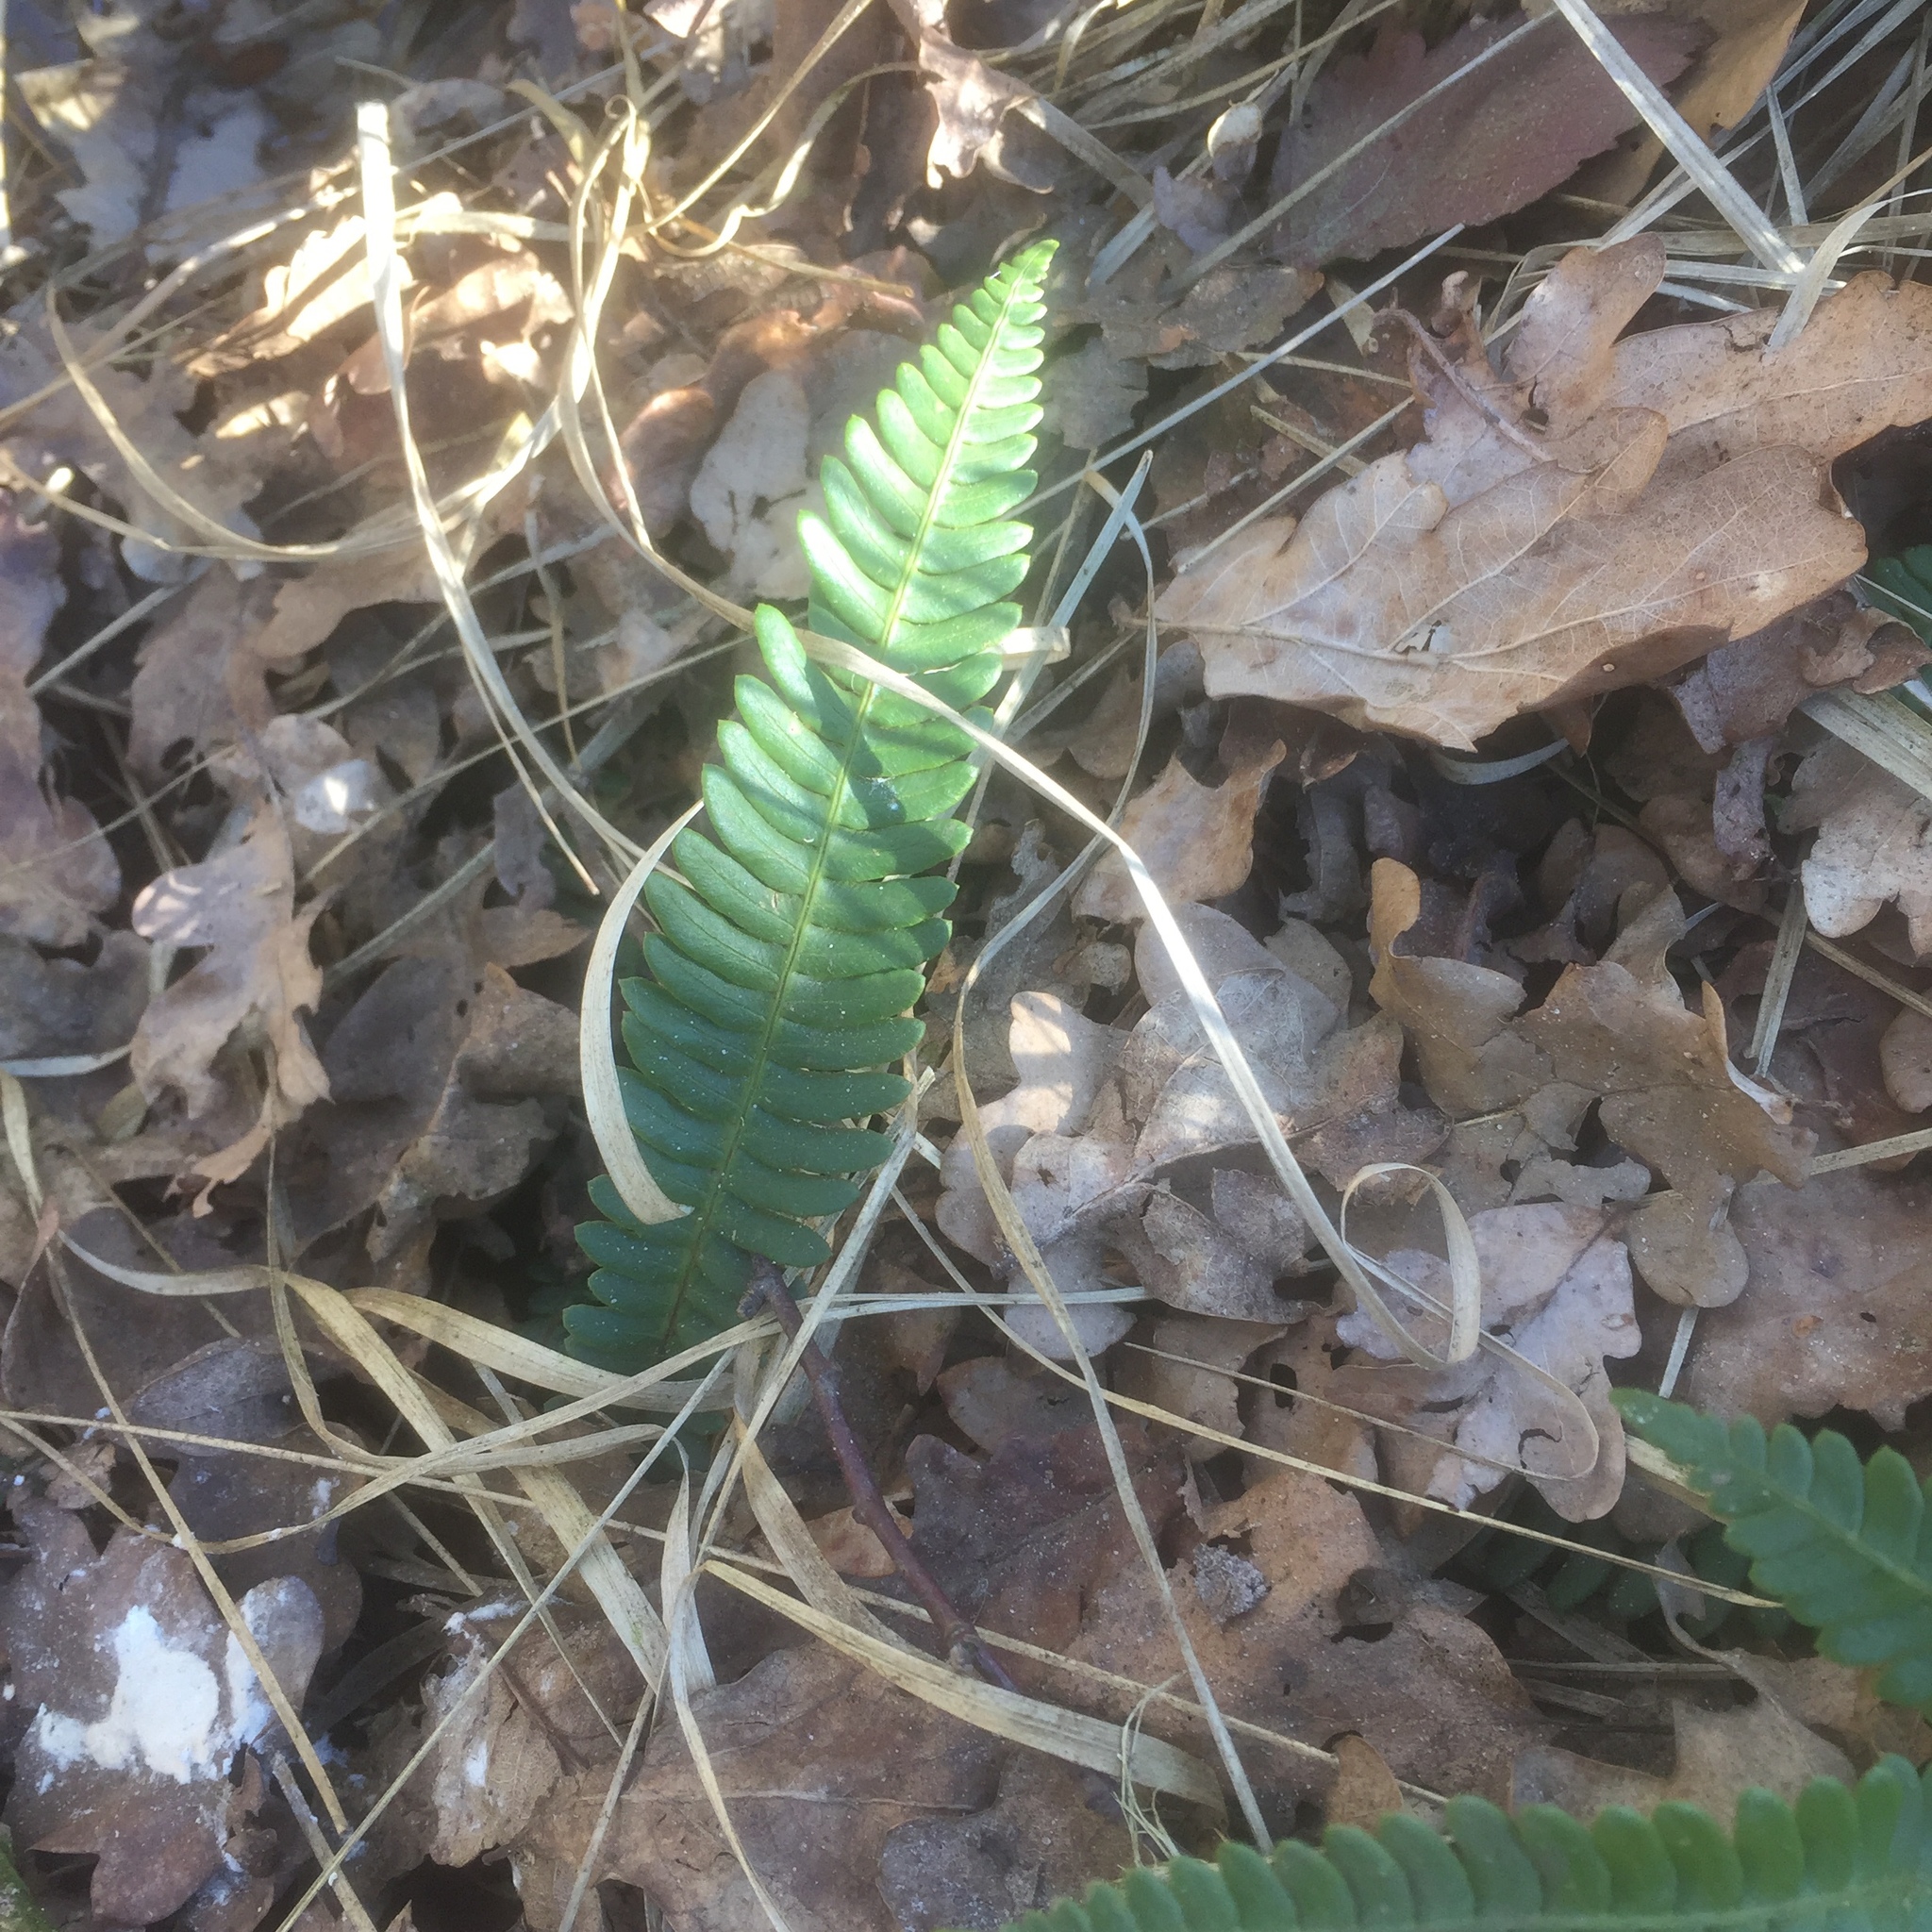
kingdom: Plantae
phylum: Tracheophyta
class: Polypodiopsida
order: Polypodiales
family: Blechnaceae
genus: Struthiopteris
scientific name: Struthiopteris spicant
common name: Deer fern
